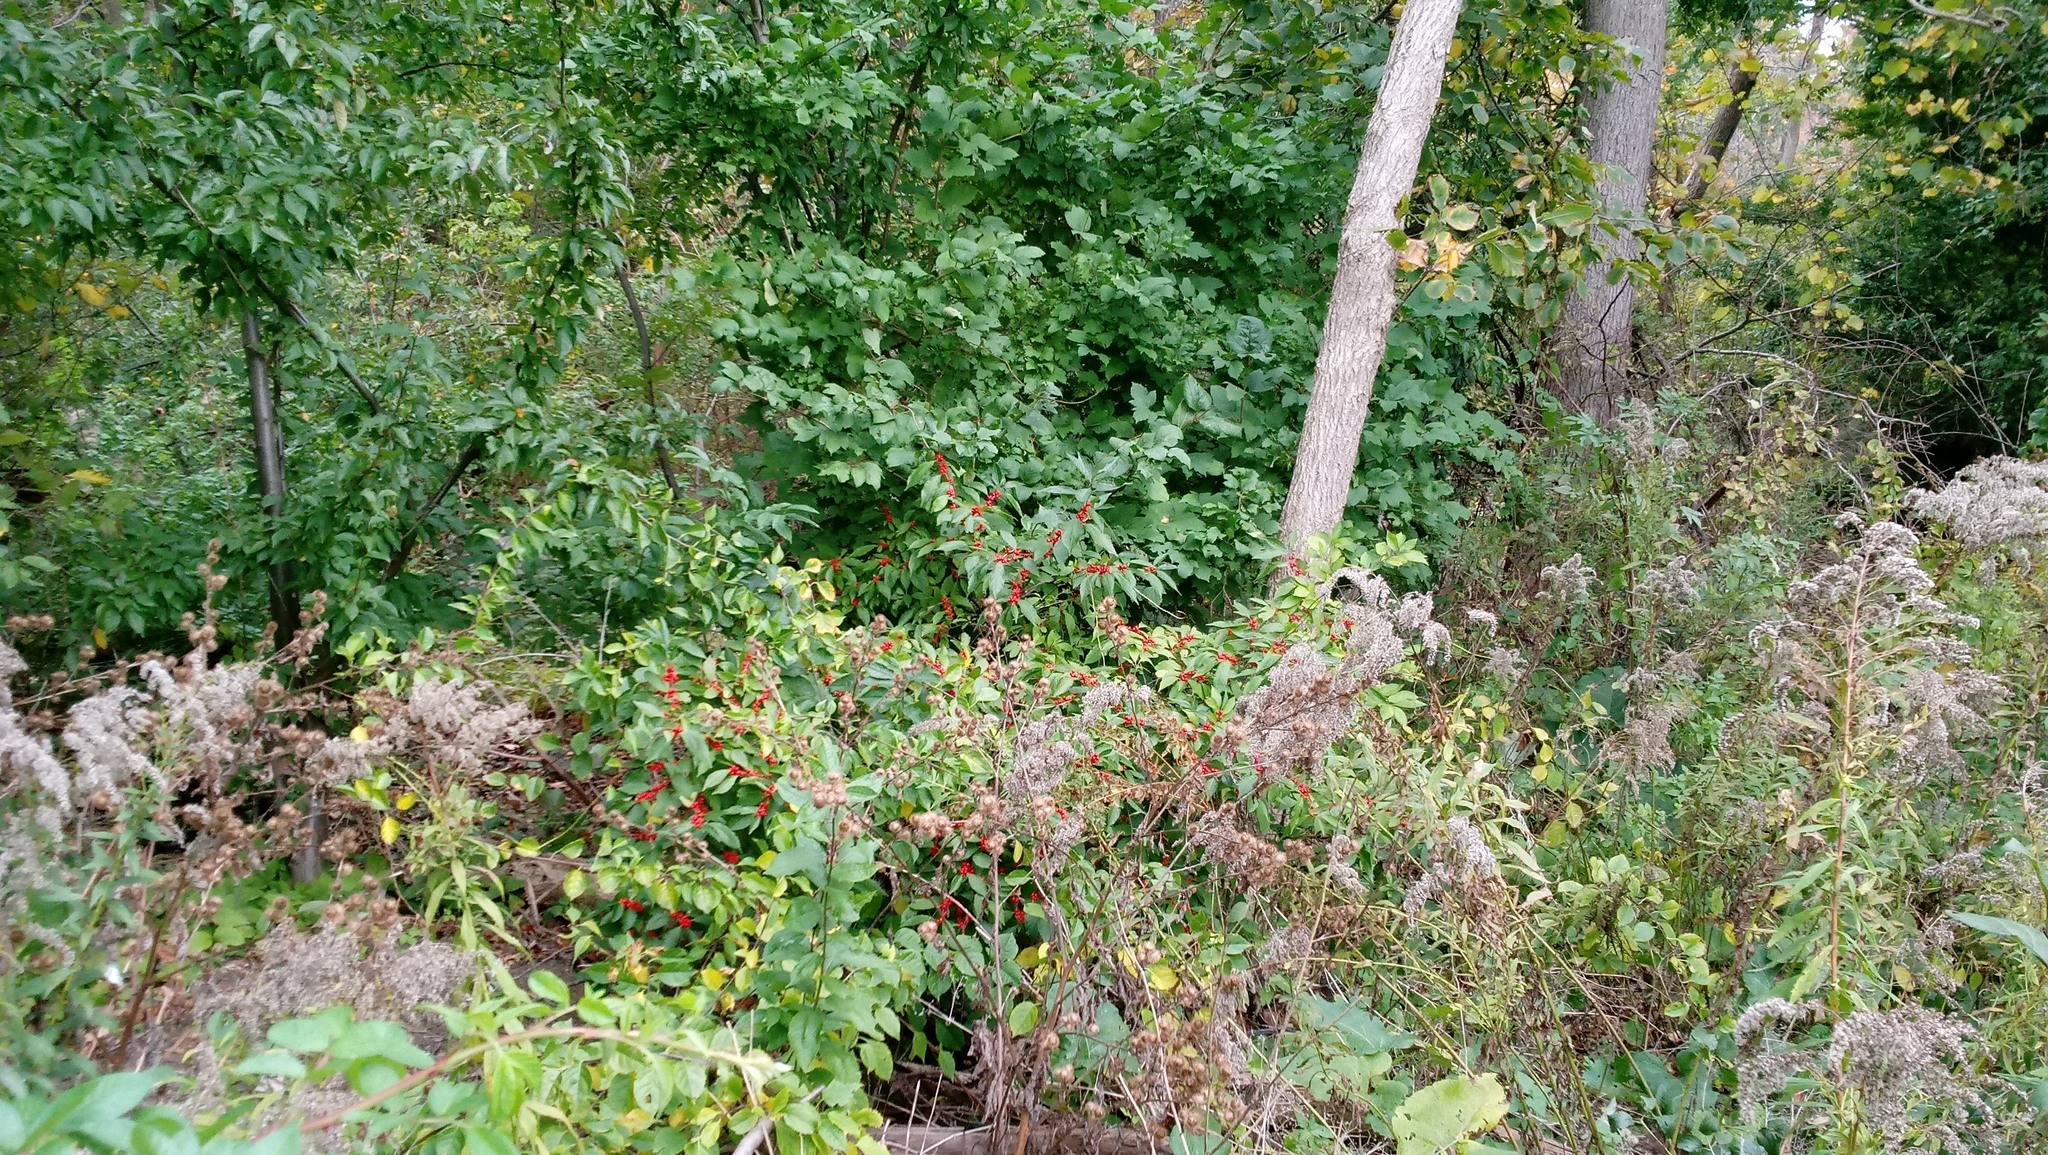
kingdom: Plantae
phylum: Tracheophyta
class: Magnoliopsida
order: Aquifoliales
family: Aquifoliaceae
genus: Ilex
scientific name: Ilex verticillata
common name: Virginia winterberry
